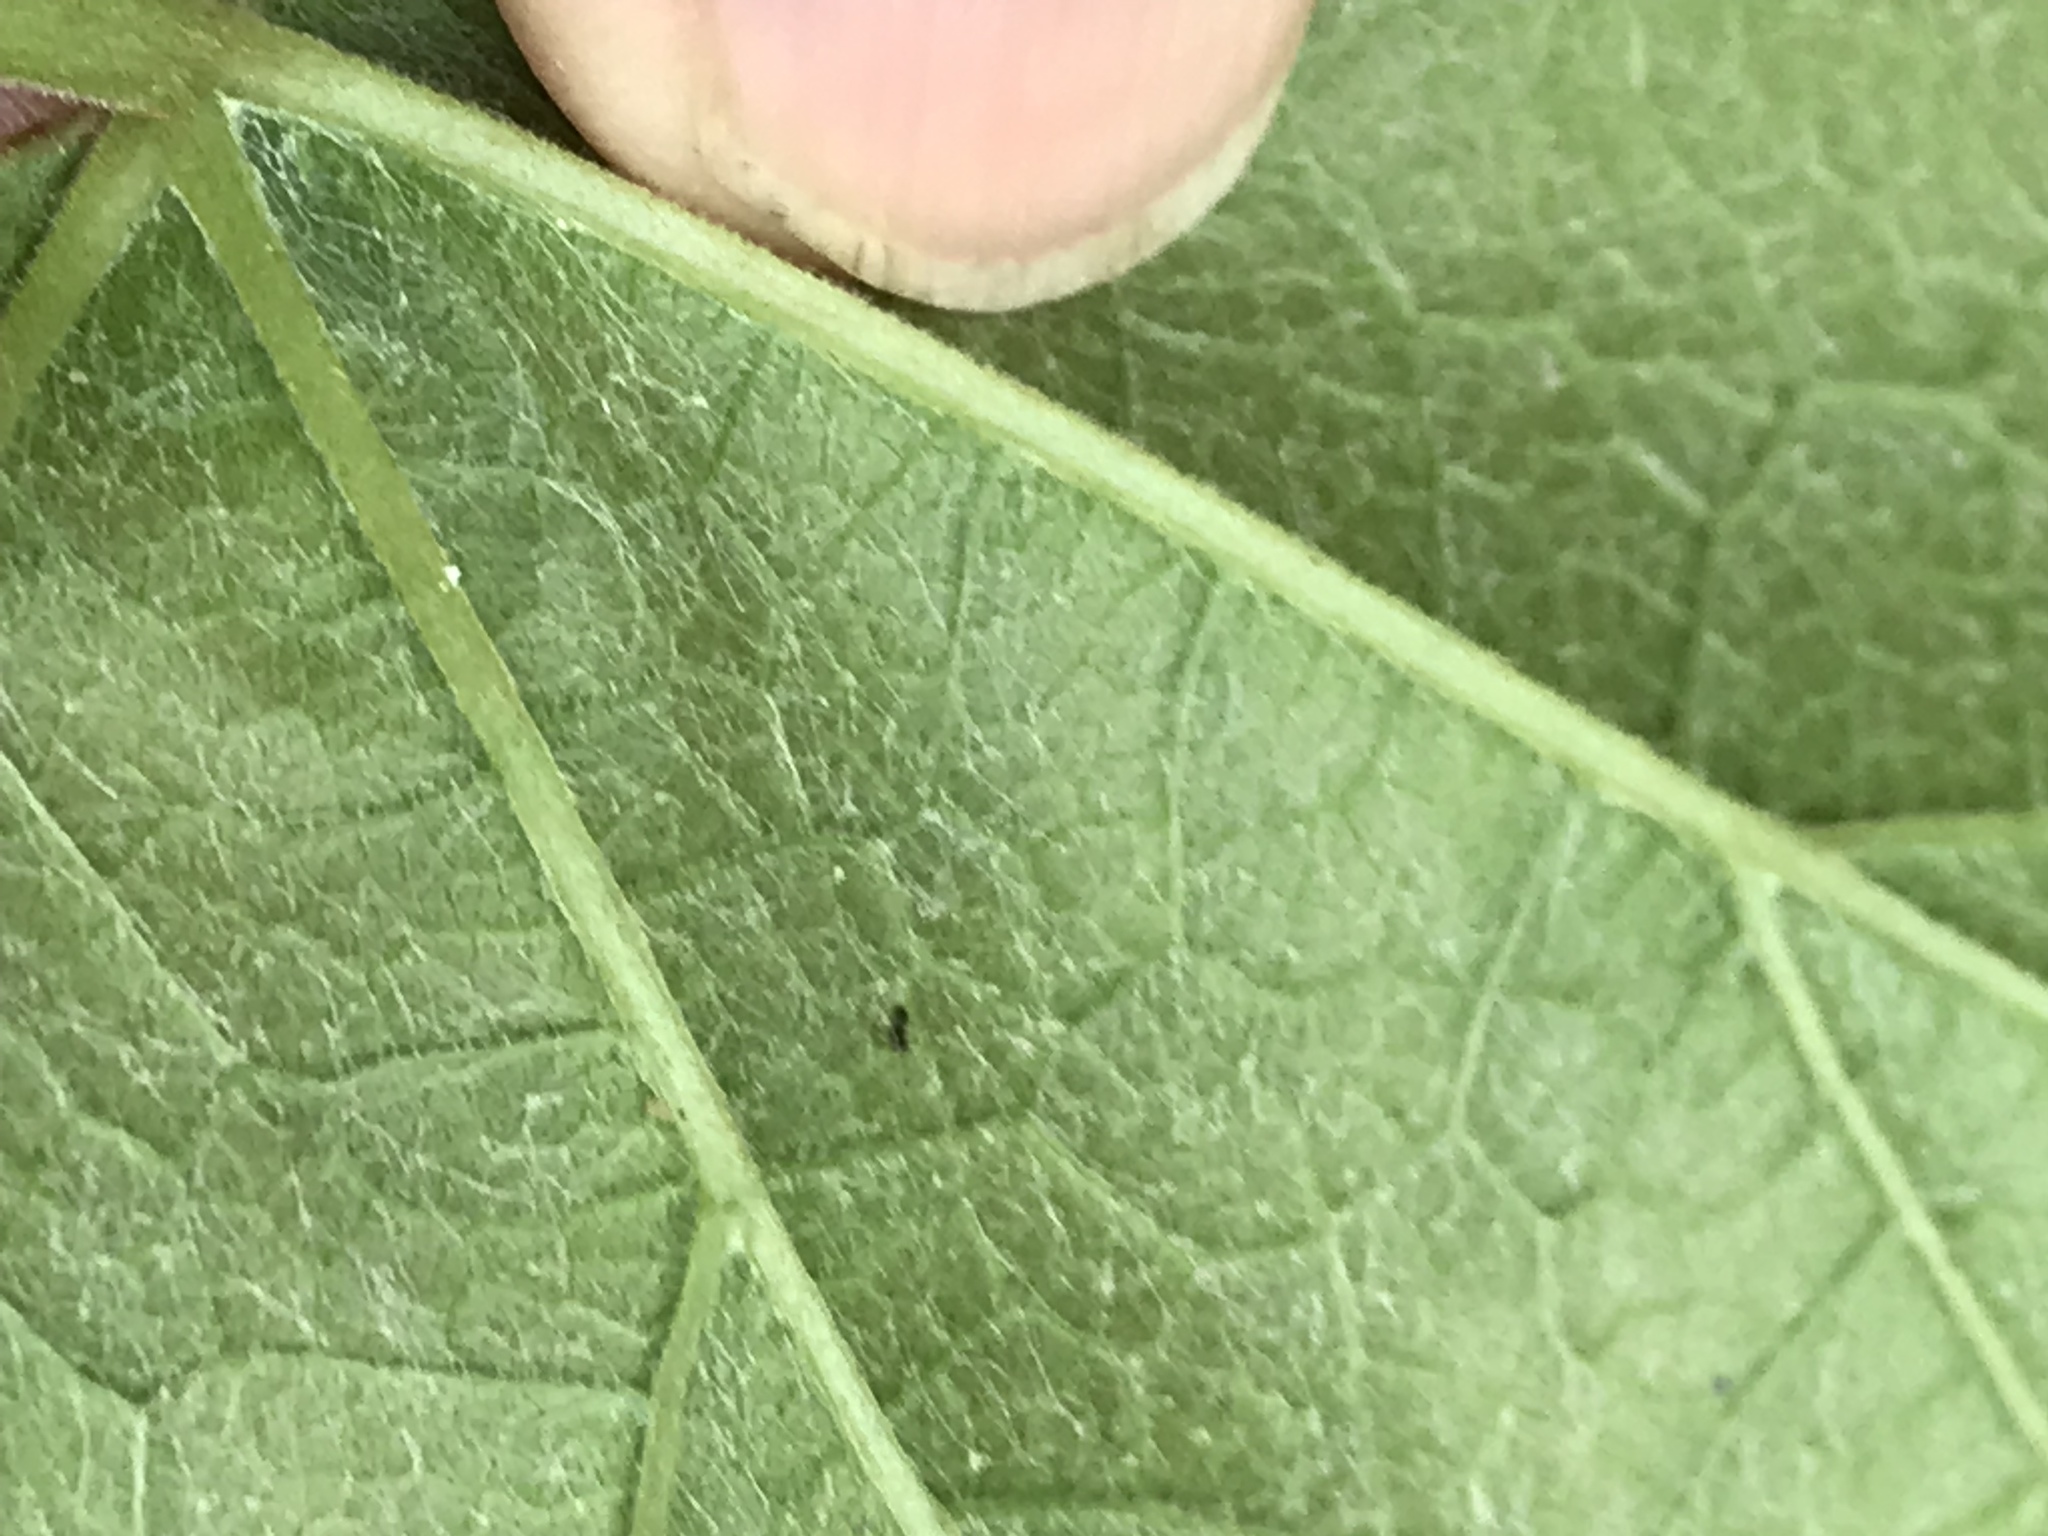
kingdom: Plantae
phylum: Tracheophyta
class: Magnoliopsida
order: Vitales
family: Vitaceae
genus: Vitis
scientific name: Vitis aestivalis
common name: Pigeon grape
